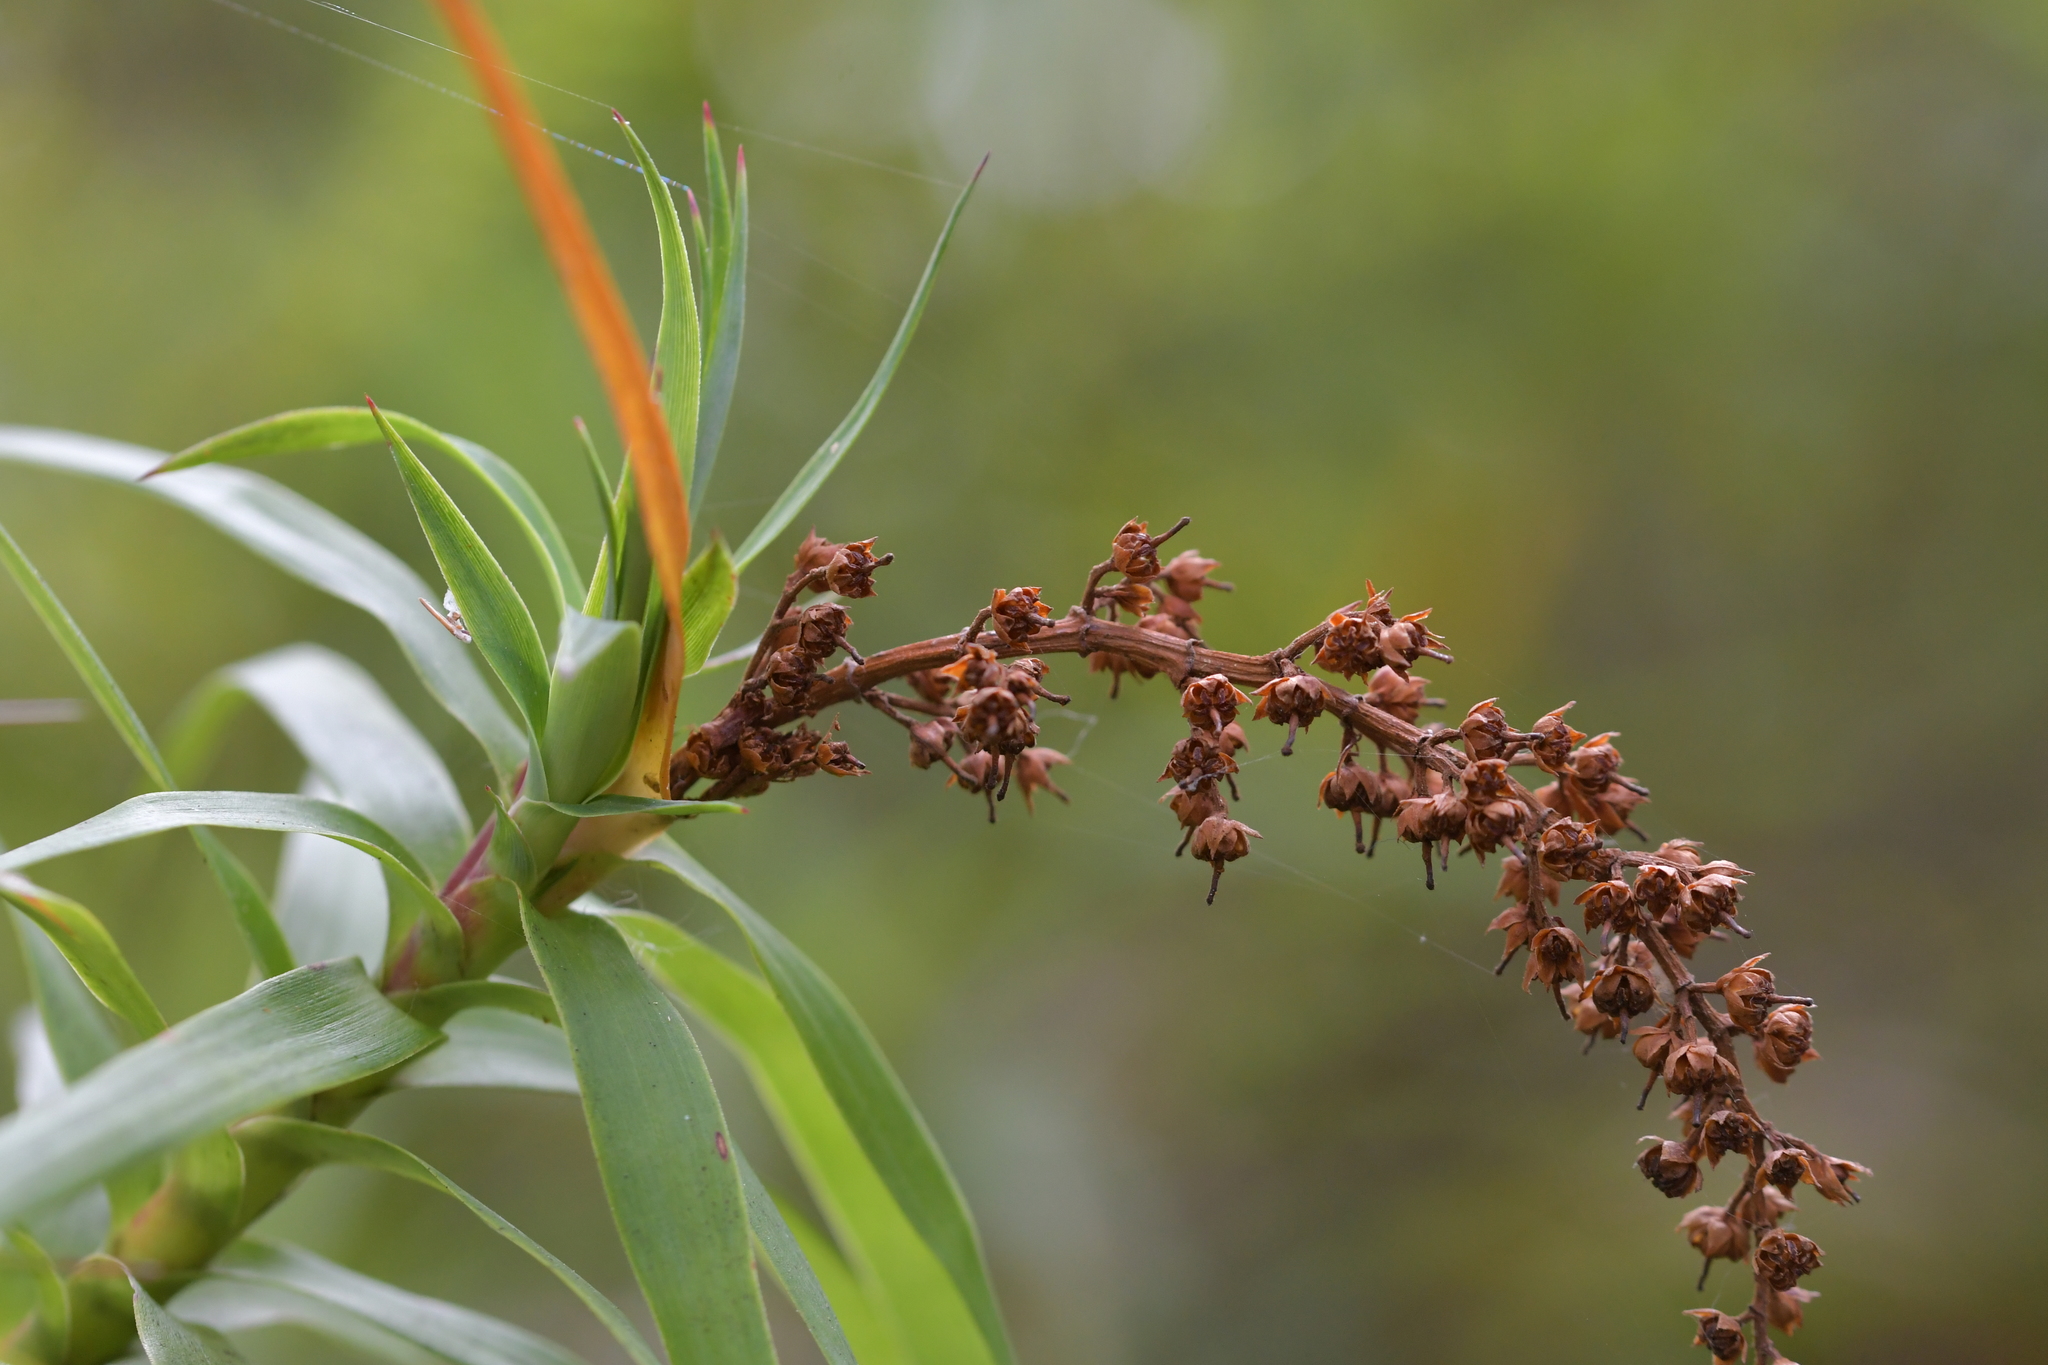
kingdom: Plantae
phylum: Tracheophyta
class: Magnoliopsida
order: Ericales
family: Ericaceae
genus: Dracophyllum
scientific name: Dracophyllum strictum
